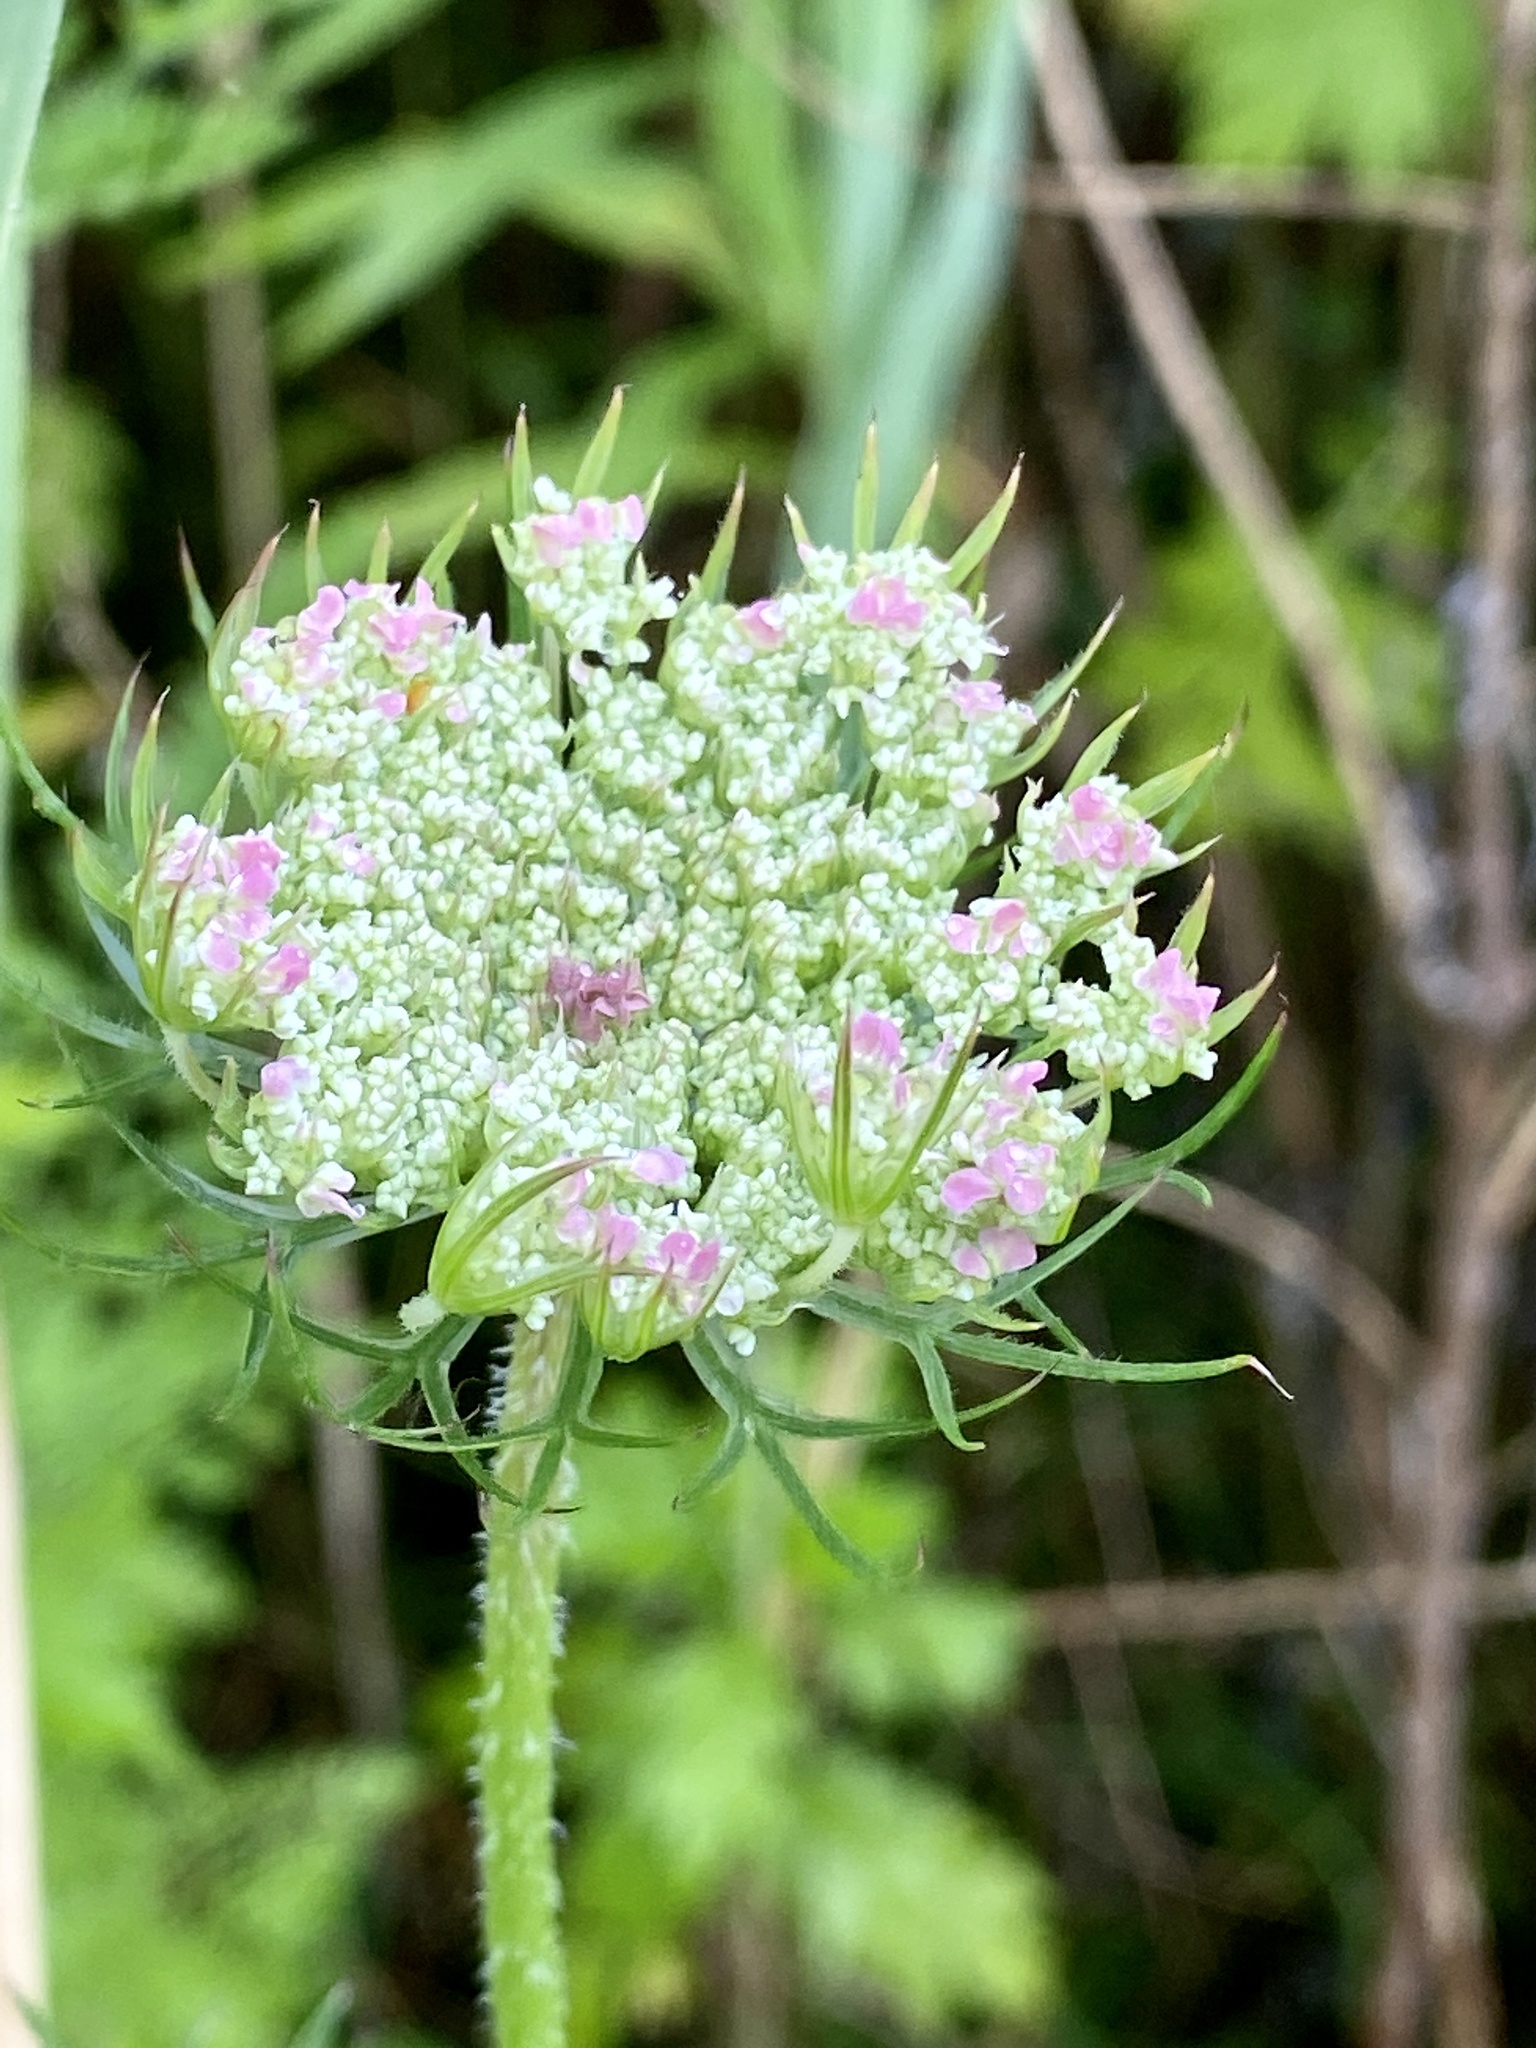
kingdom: Plantae
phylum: Tracheophyta
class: Magnoliopsida
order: Apiales
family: Apiaceae
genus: Daucus
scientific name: Daucus carota
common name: Wild carrot
